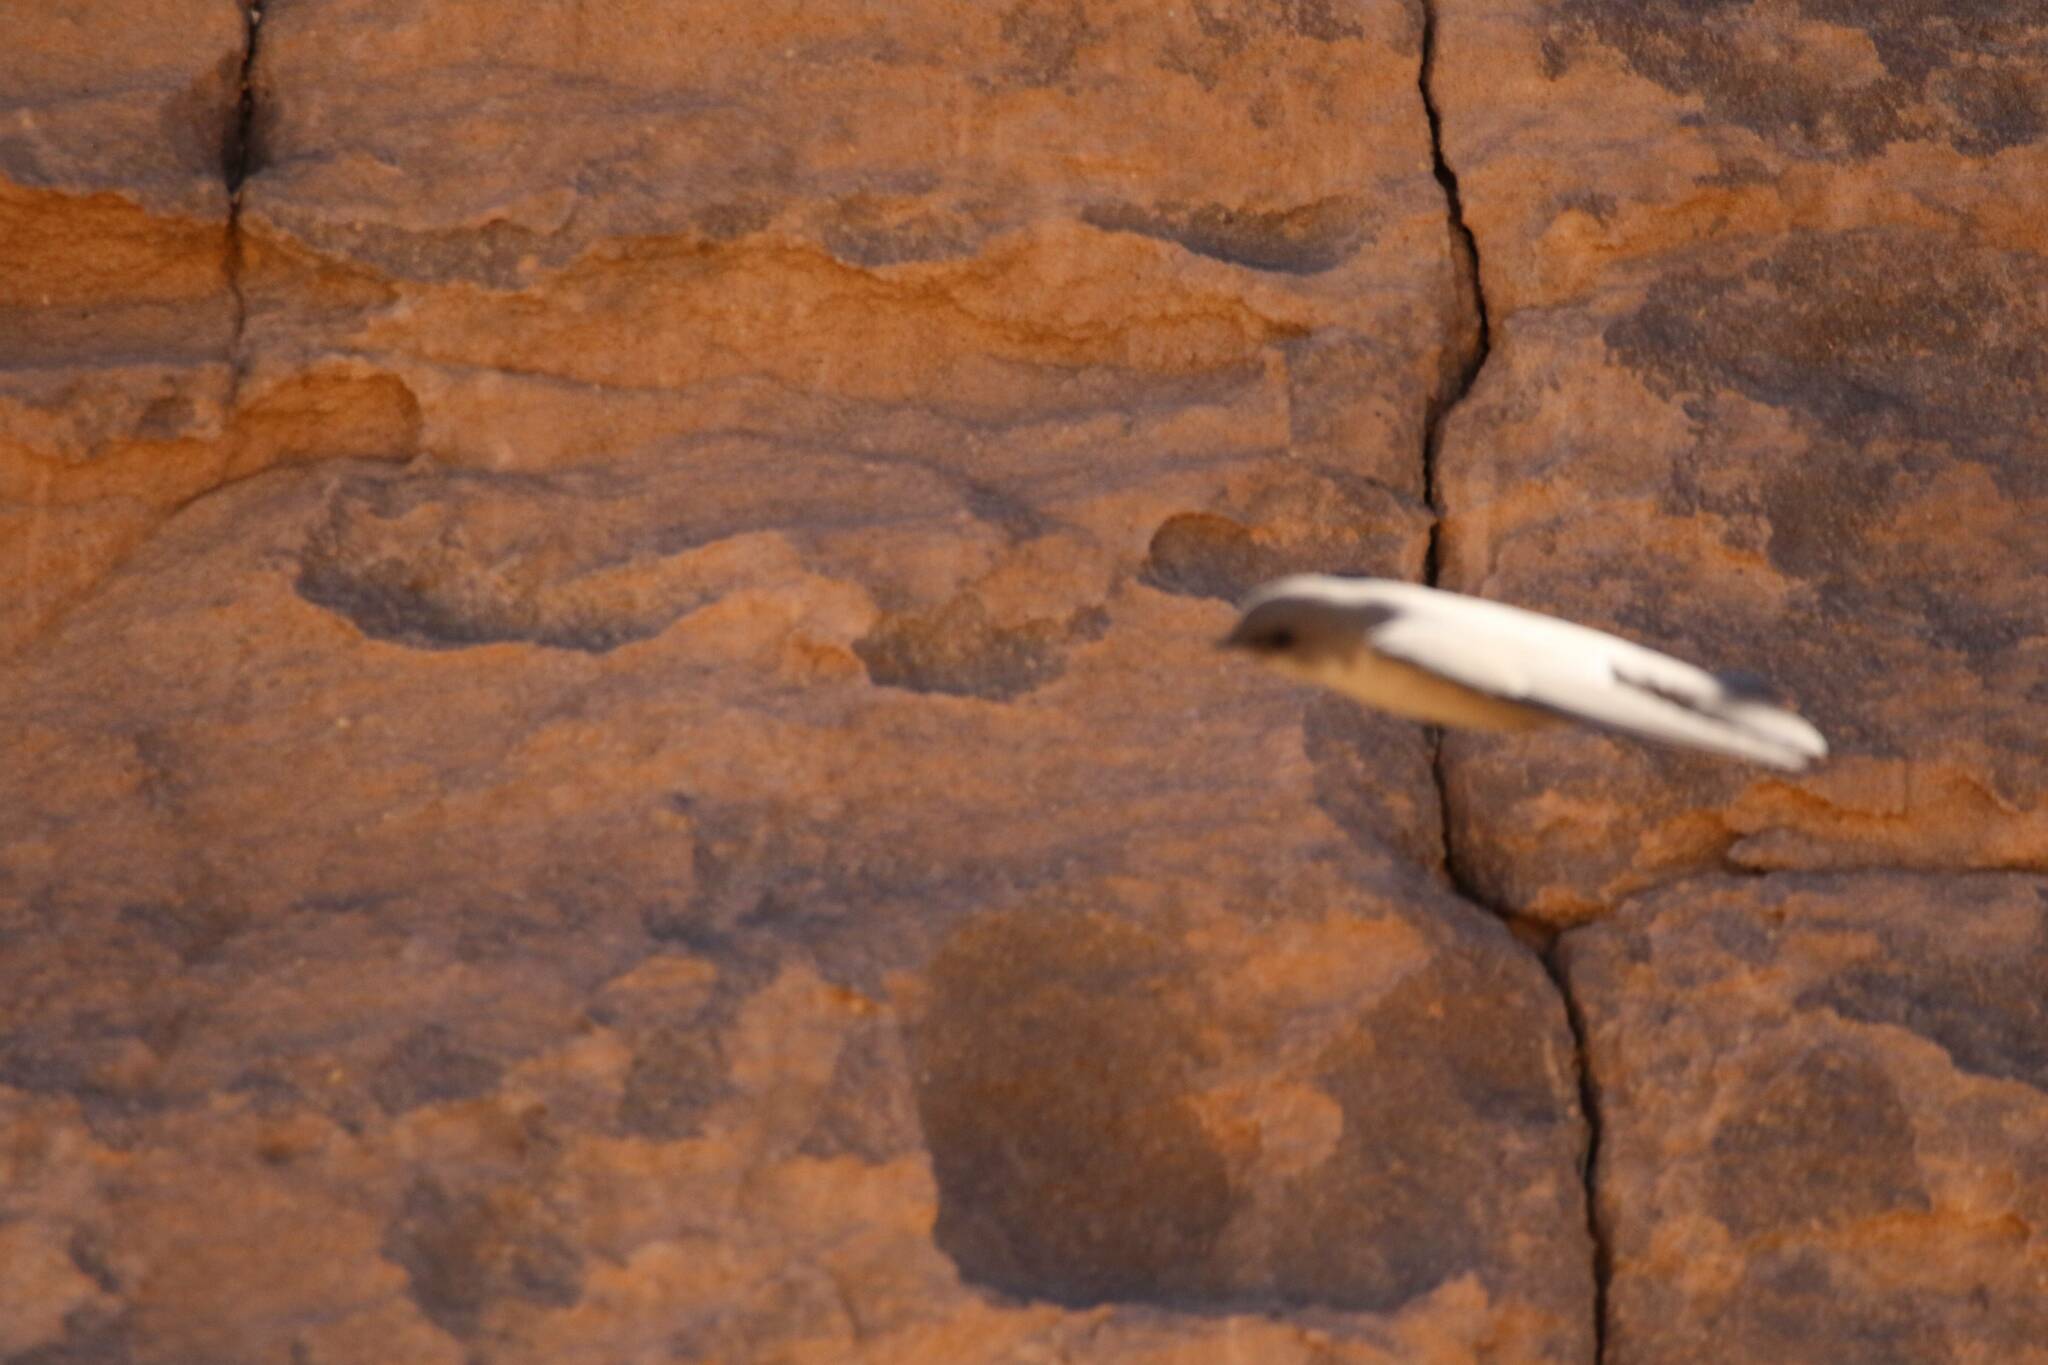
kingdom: Animalia
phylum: Chordata
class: Aves
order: Passeriformes
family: Hirundinidae
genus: Ptyonoprogne
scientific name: Ptyonoprogne fuligula
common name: Rock martin
